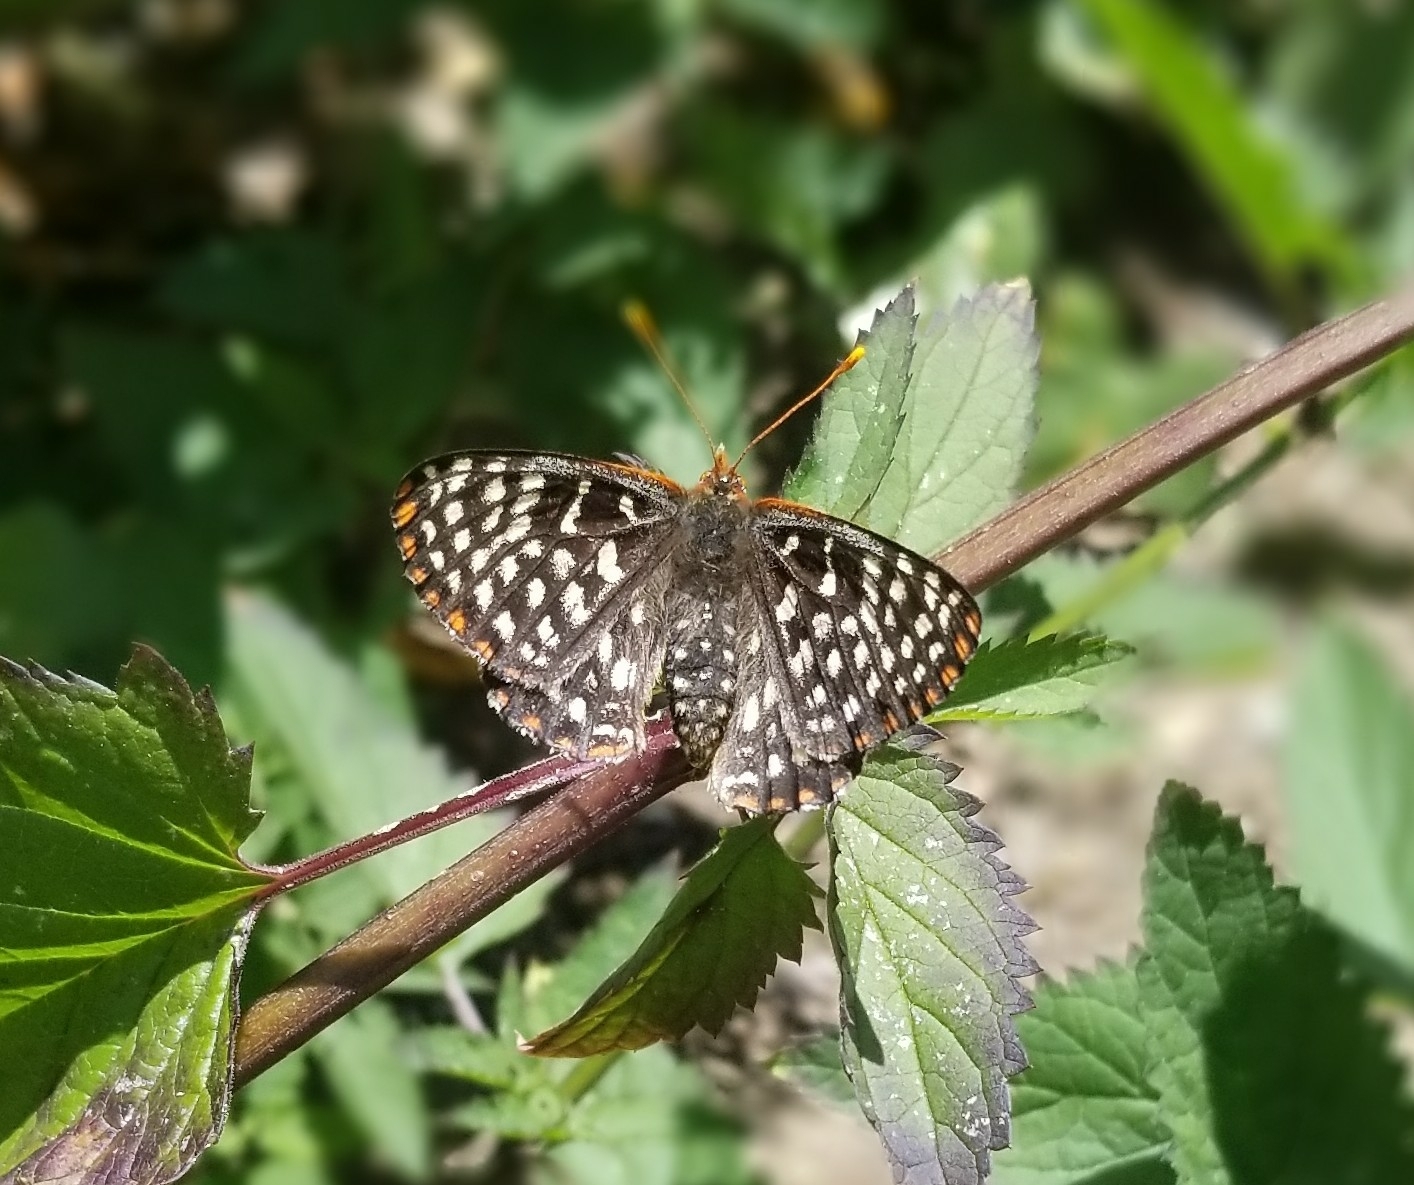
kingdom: Animalia
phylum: Arthropoda
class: Insecta
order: Lepidoptera
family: Nymphalidae
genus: Occidryas
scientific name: Occidryas chalcedona
